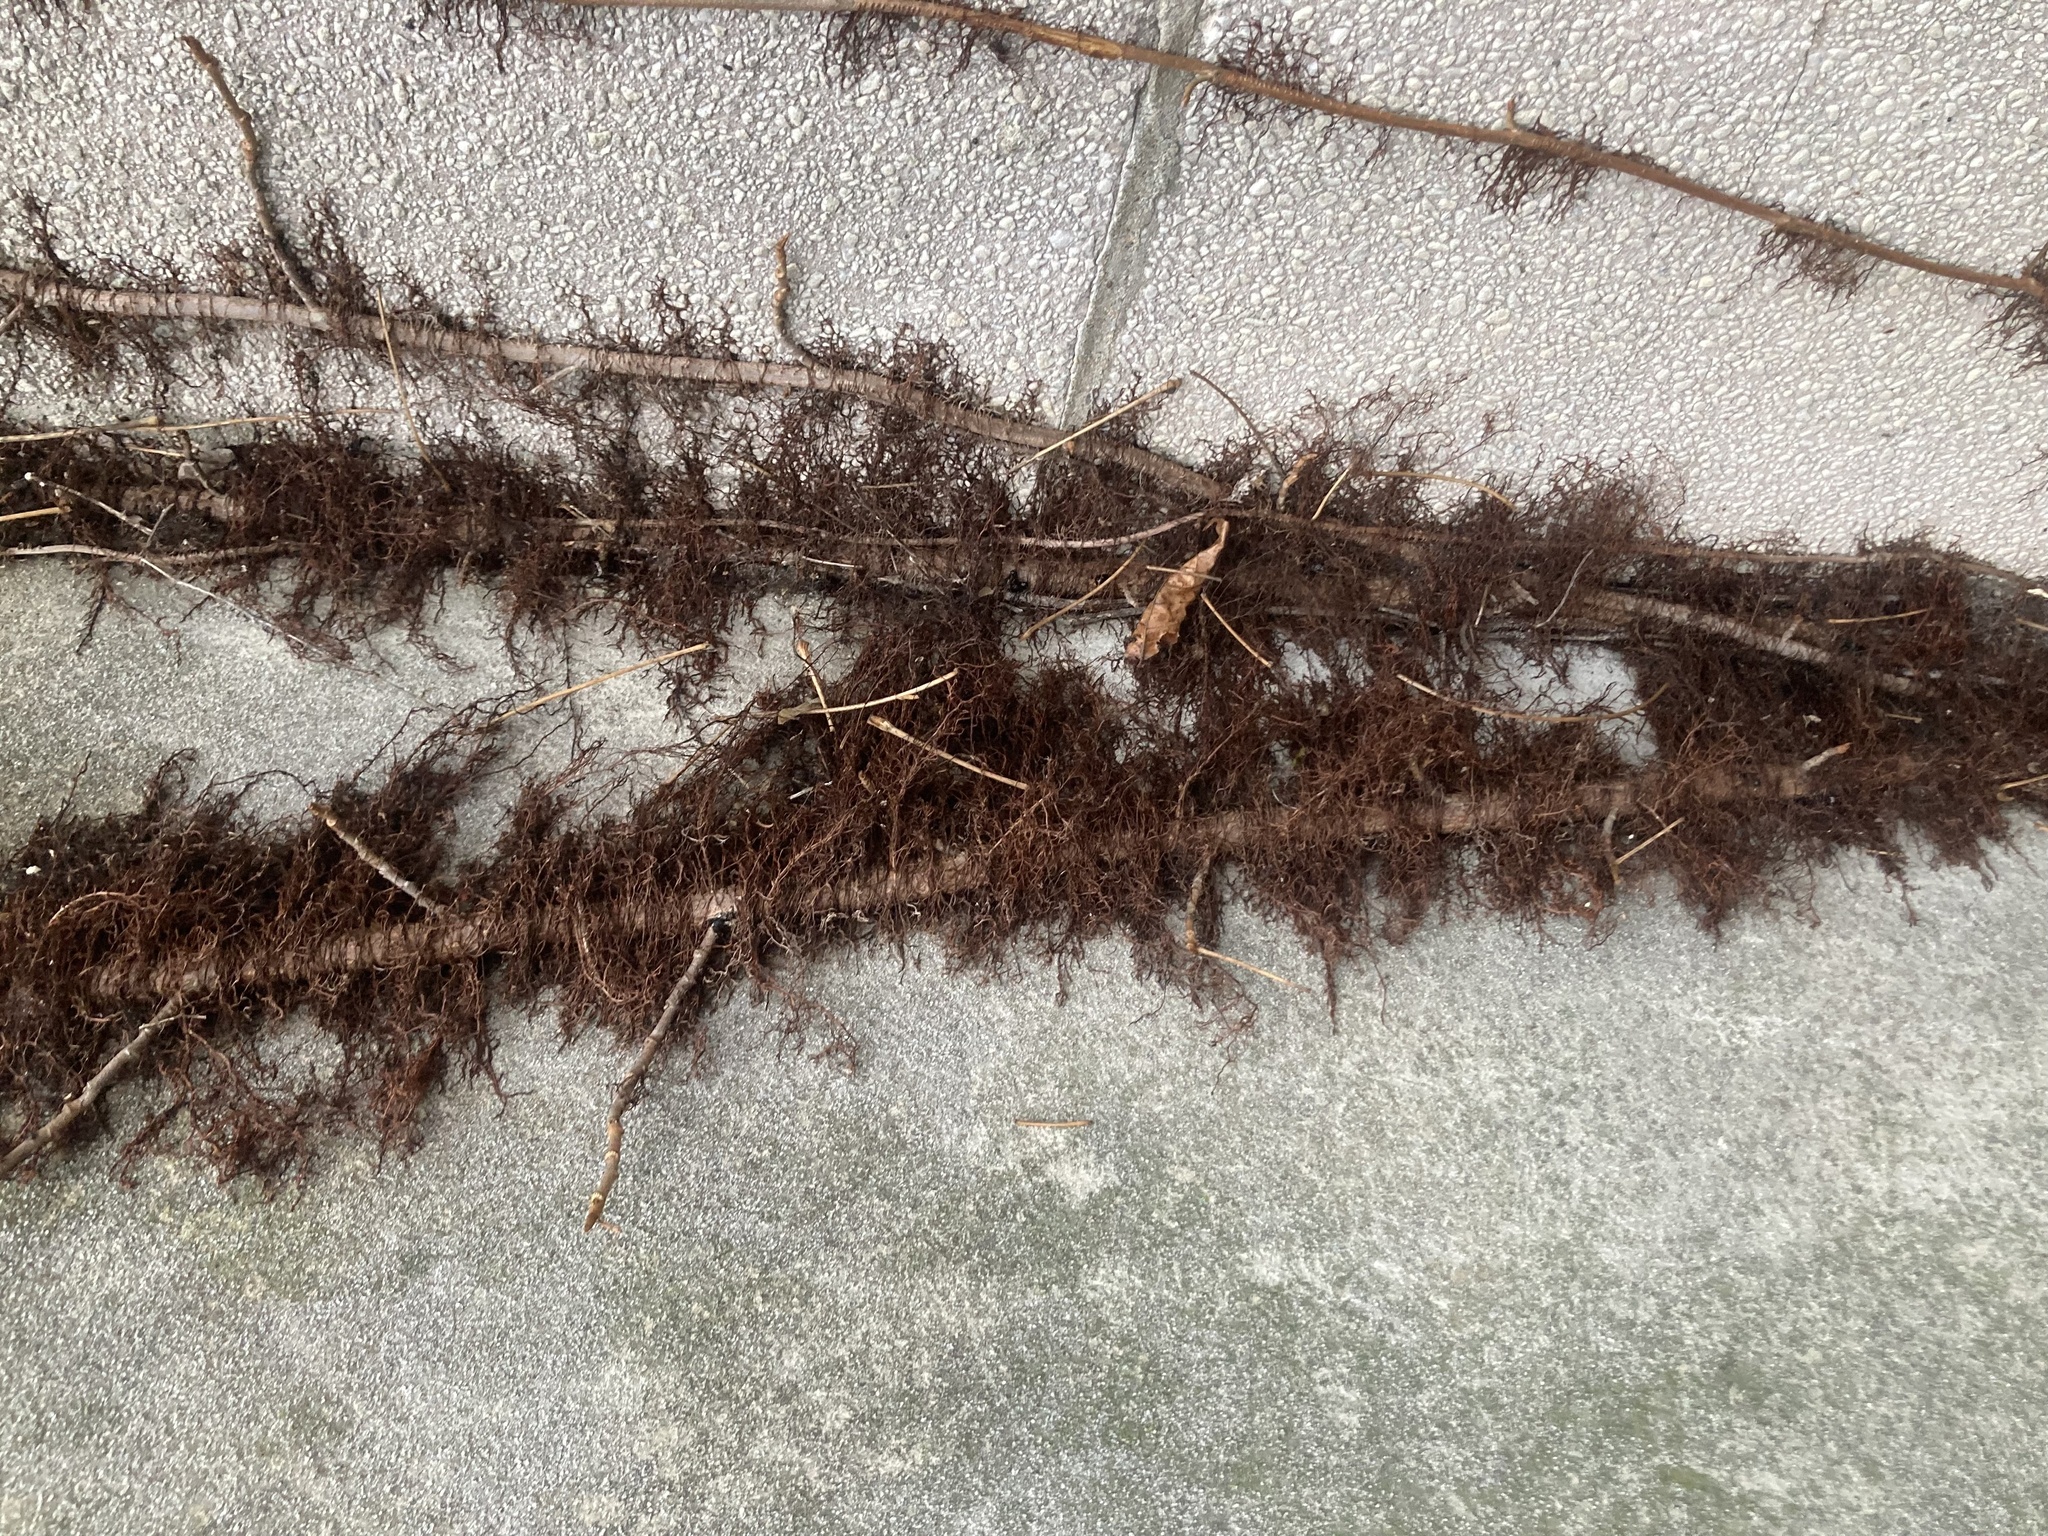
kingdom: Plantae
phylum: Tracheophyta
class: Magnoliopsida
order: Sapindales
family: Anacardiaceae
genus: Toxicodendron
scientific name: Toxicodendron radicans
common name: Poison ivy
